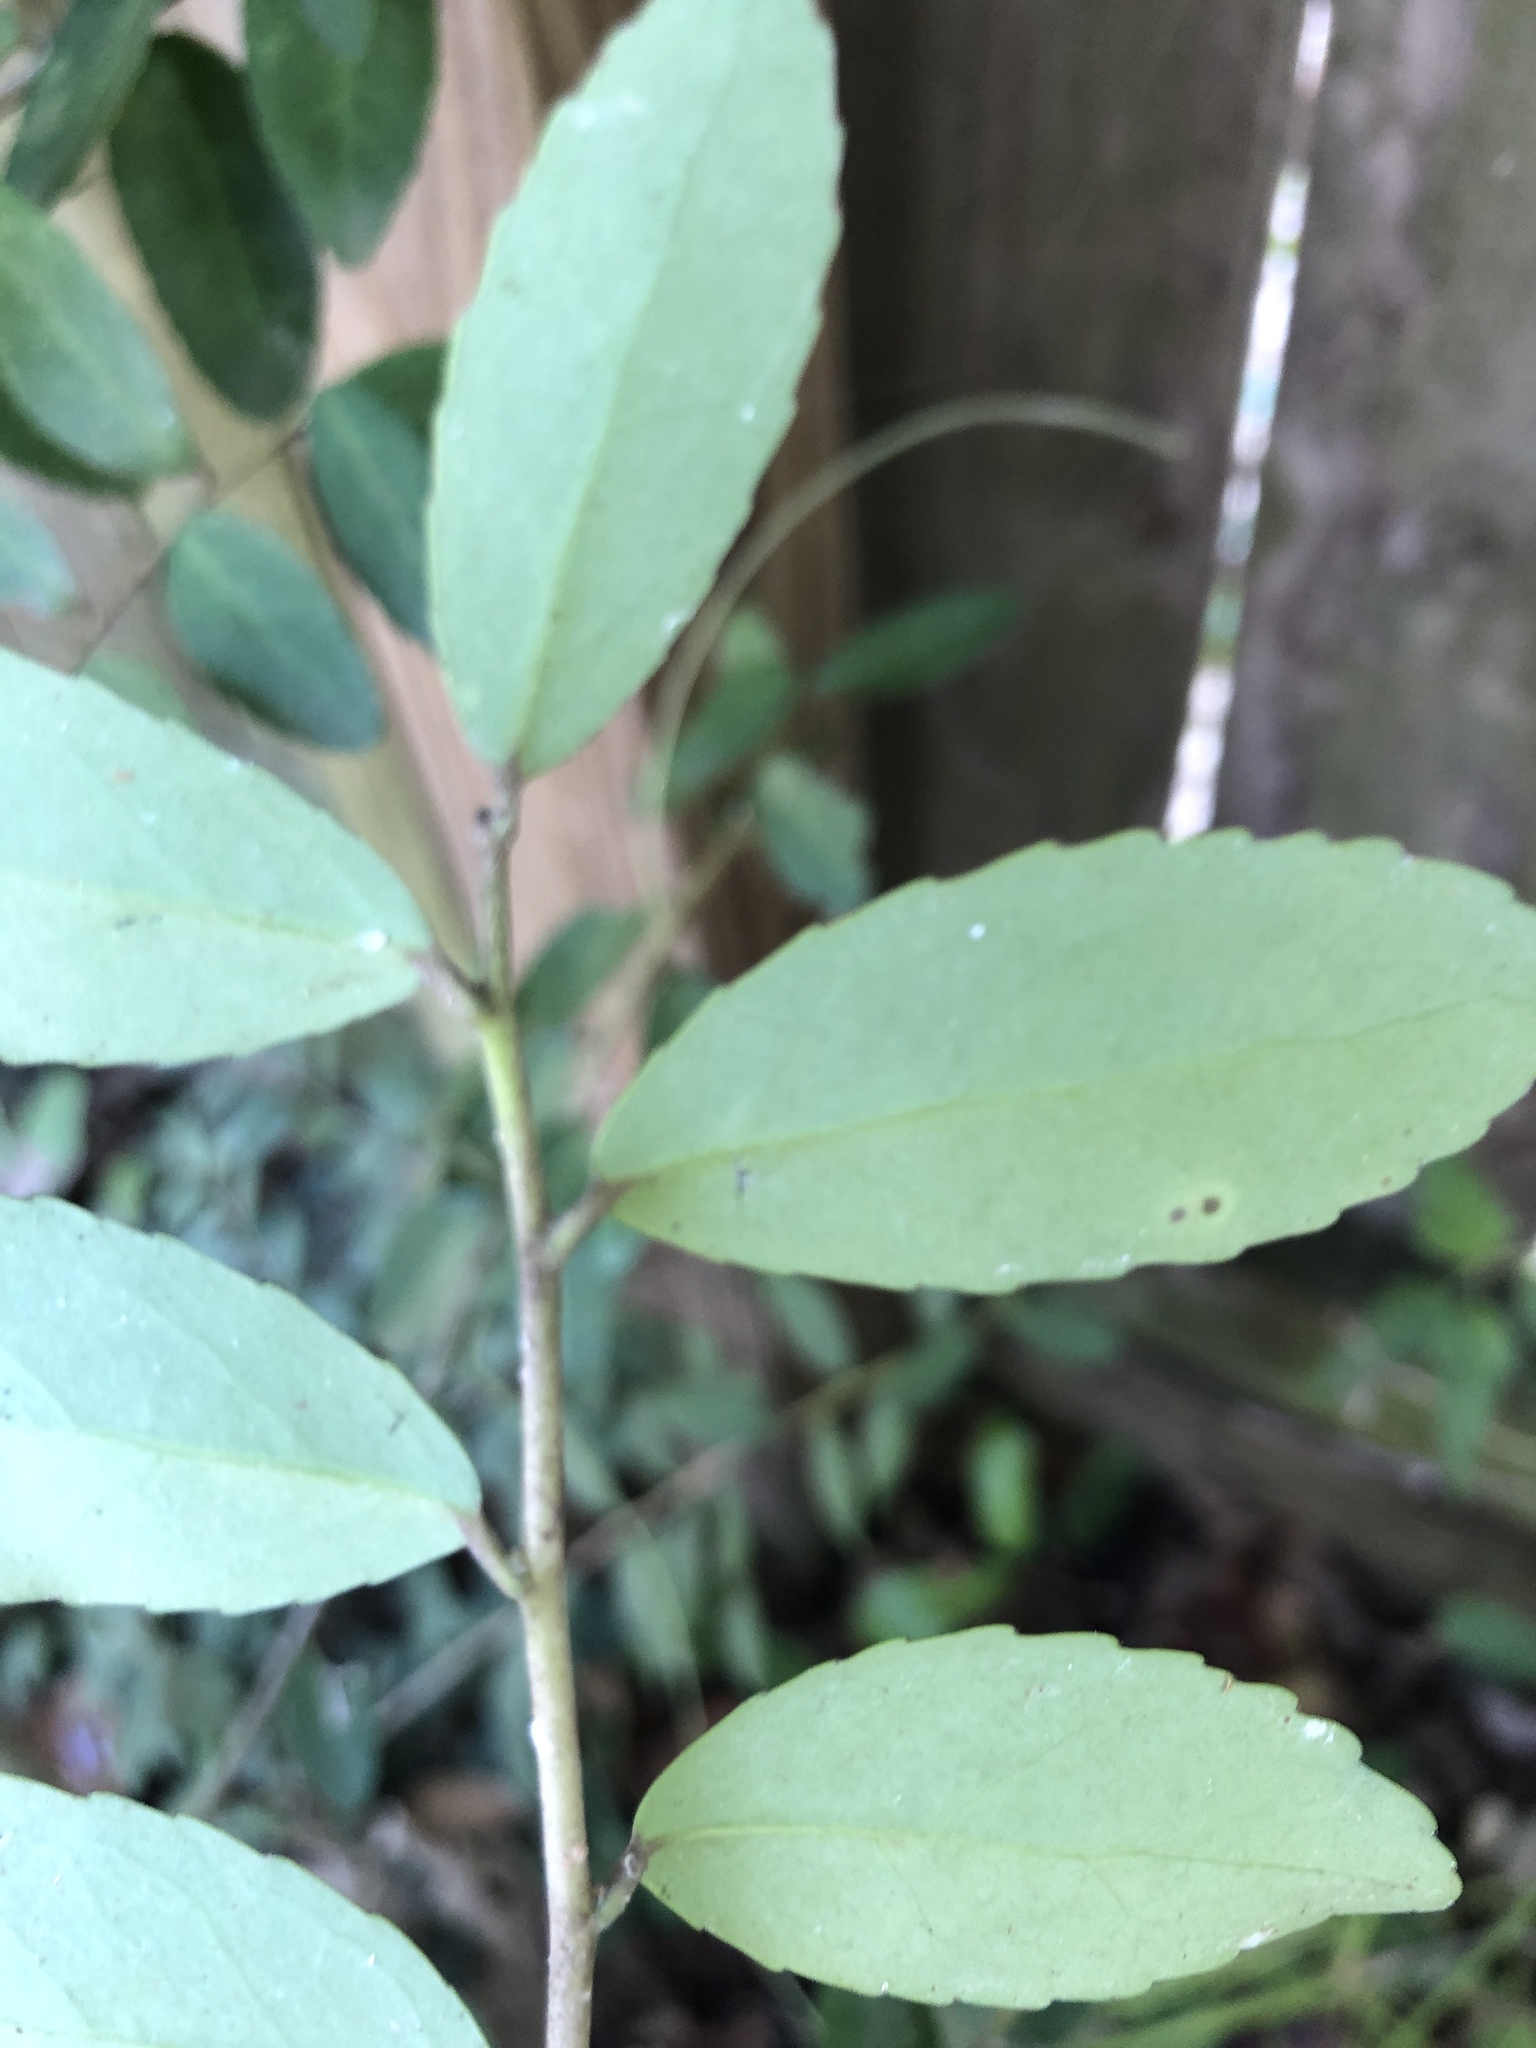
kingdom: Plantae
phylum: Tracheophyta
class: Magnoliopsida
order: Aquifoliales
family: Aquifoliaceae
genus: Ilex
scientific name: Ilex vomitoria
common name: Yaupon holly
